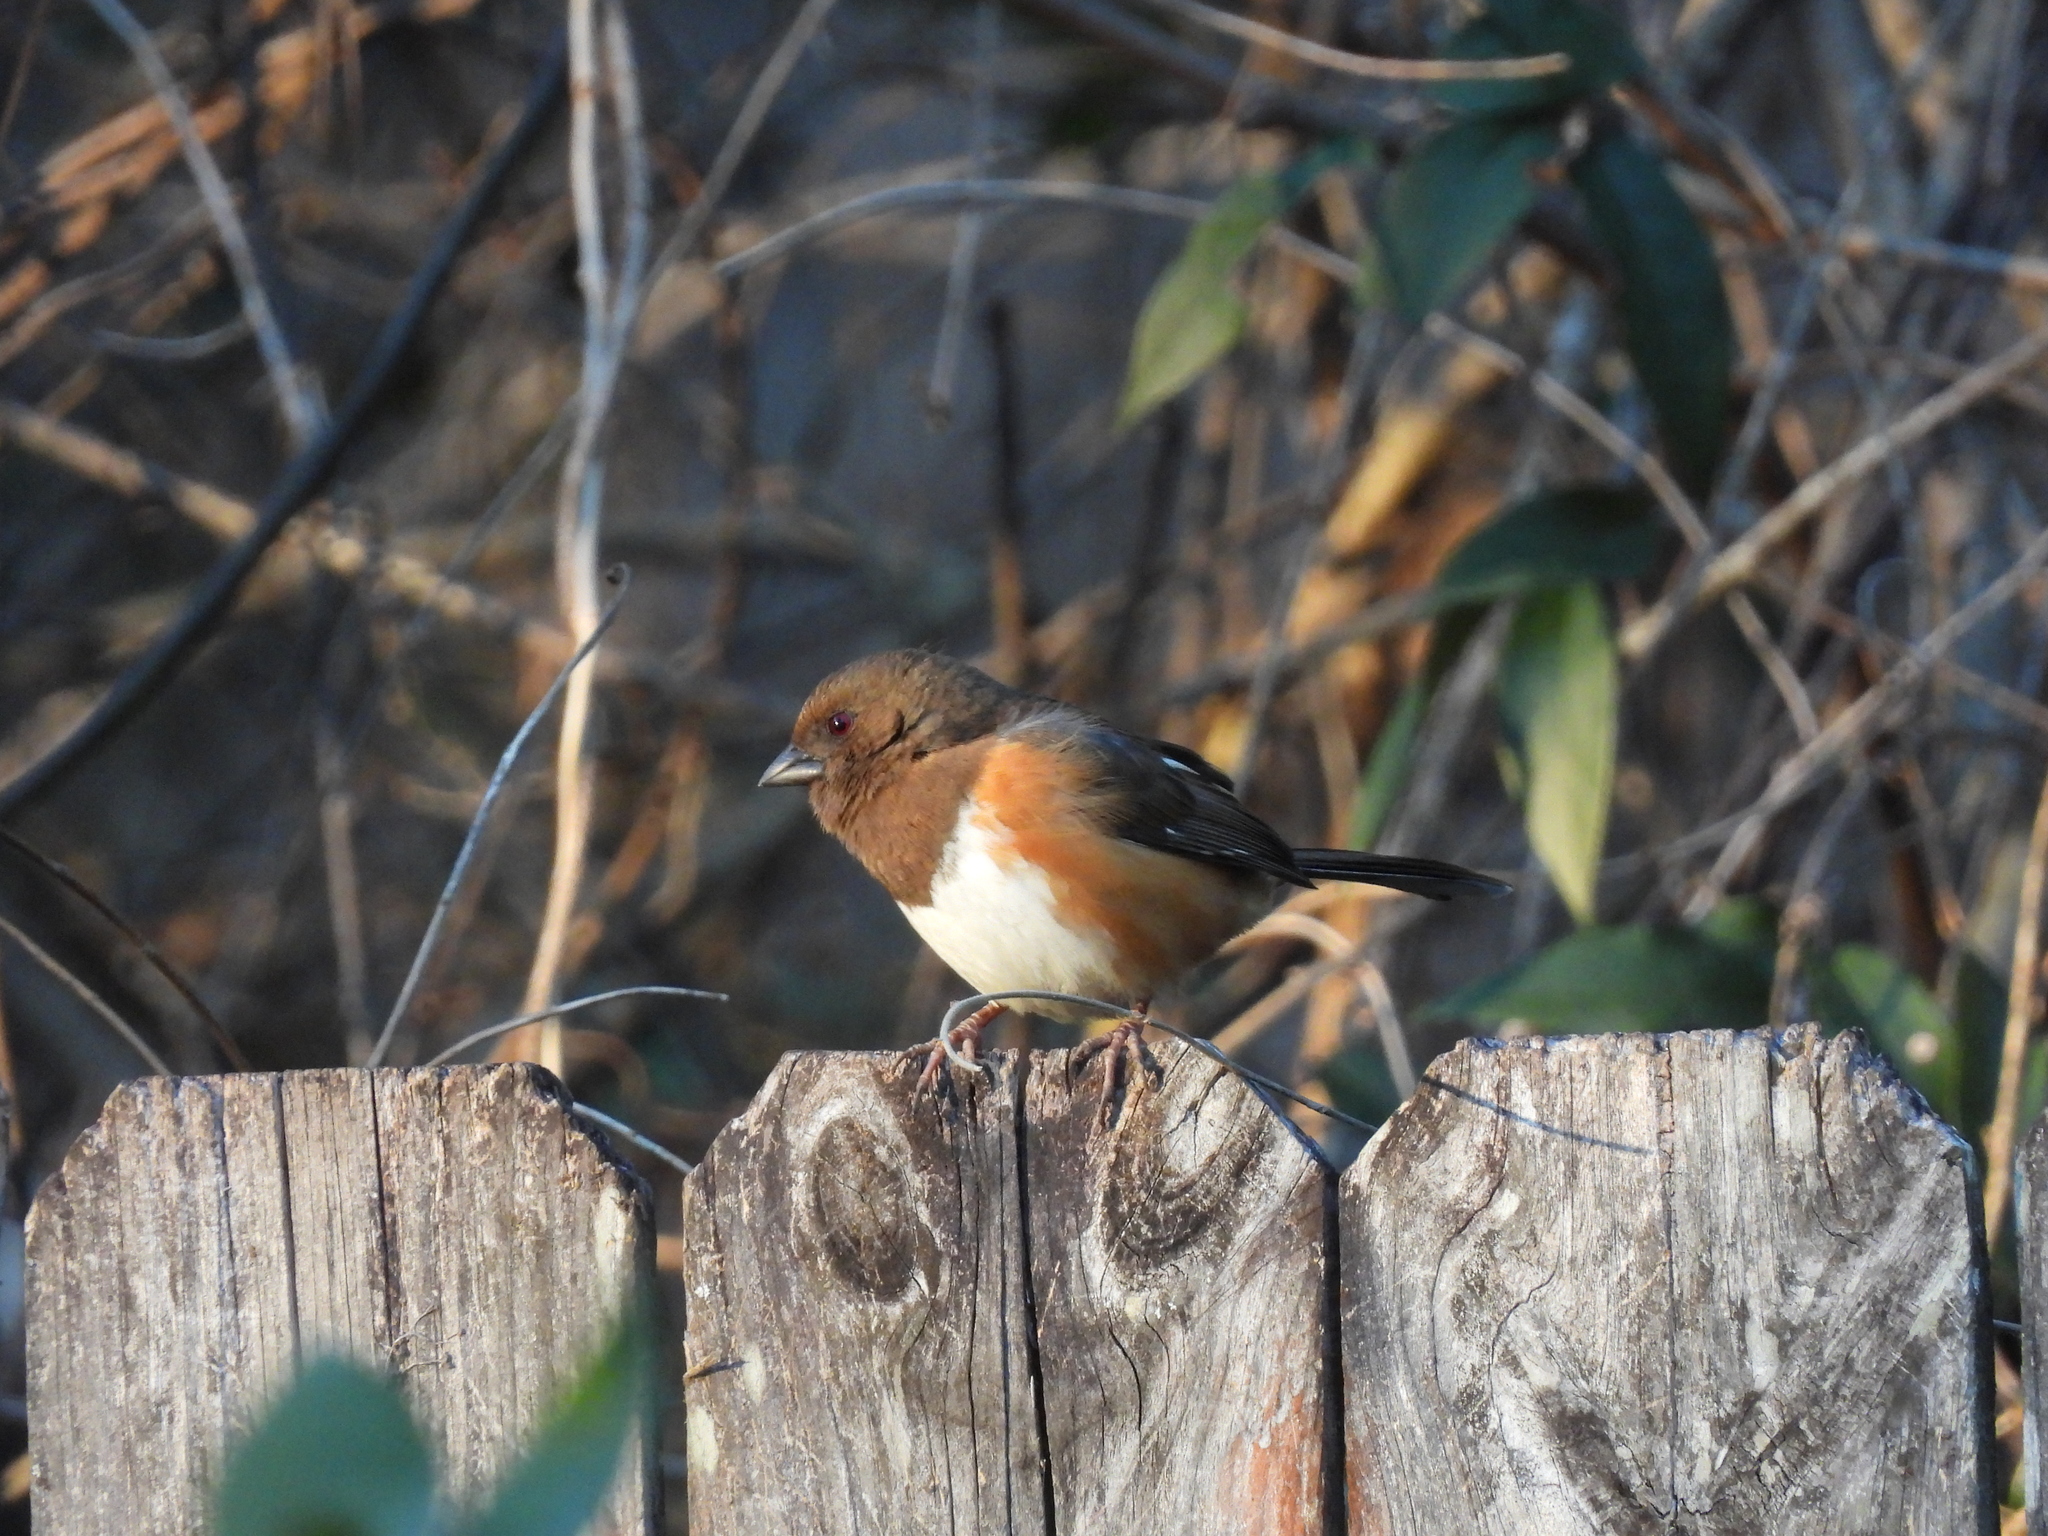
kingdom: Animalia
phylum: Chordata
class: Aves
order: Passeriformes
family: Passerellidae
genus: Pipilo
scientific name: Pipilo erythrophthalmus
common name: Eastern towhee
